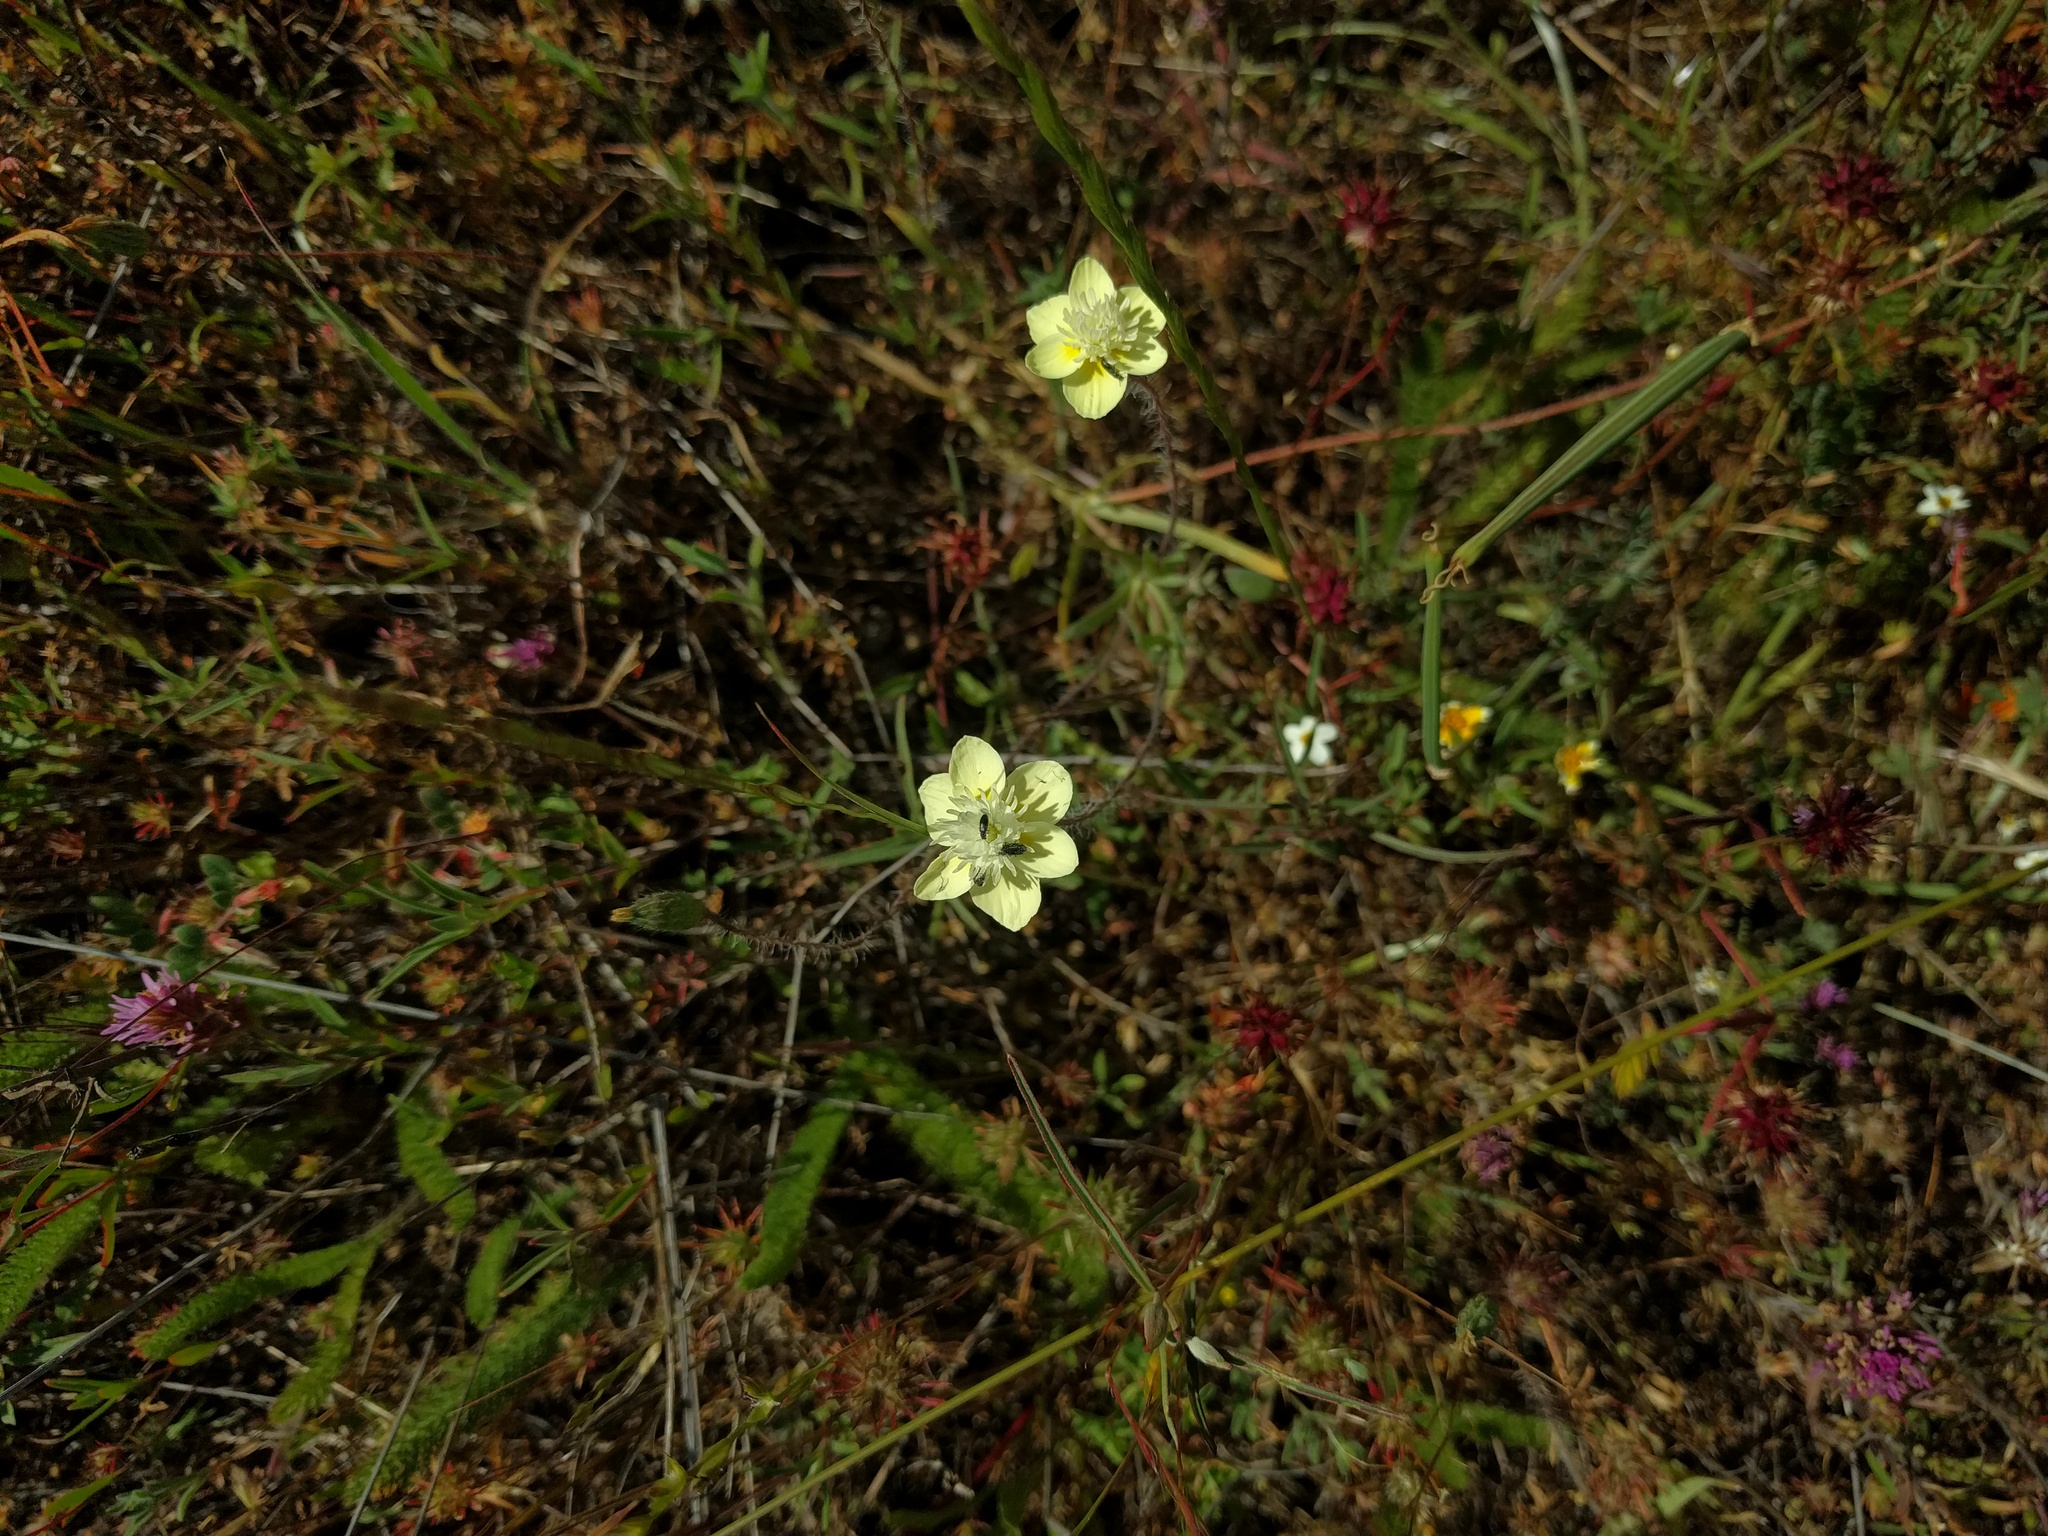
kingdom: Plantae
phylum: Tracheophyta
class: Magnoliopsida
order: Ranunculales
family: Papaveraceae
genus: Platystemon
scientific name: Platystemon californicus
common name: Cream-cups
